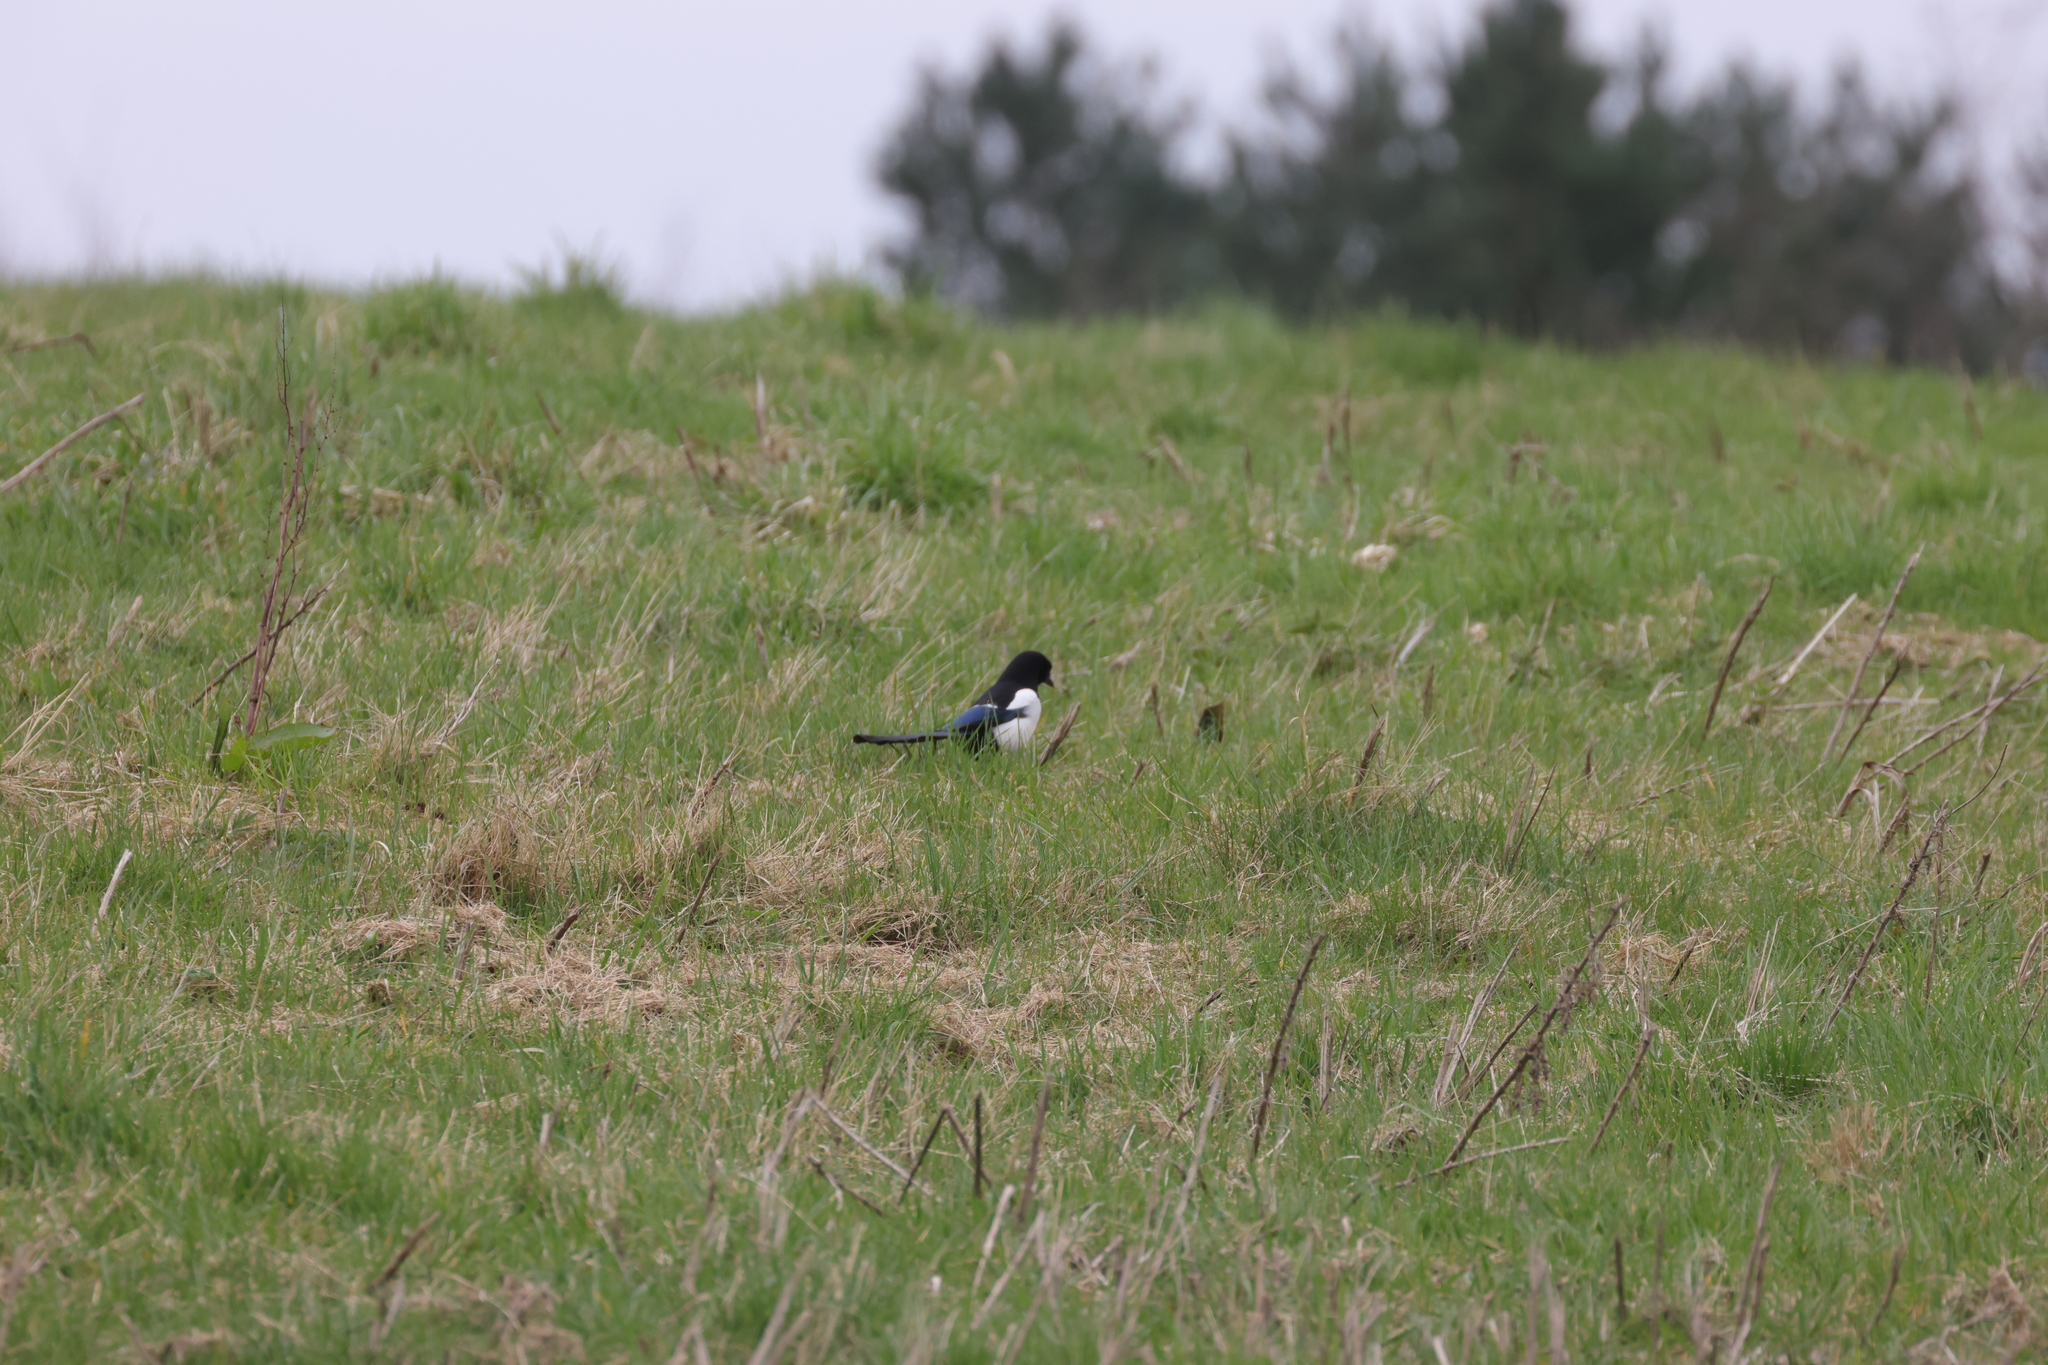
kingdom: Animalia
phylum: Chordata
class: Aves
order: Passeriformes
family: Corvidae
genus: Pica
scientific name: Pica pica
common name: Eurasian magpie
